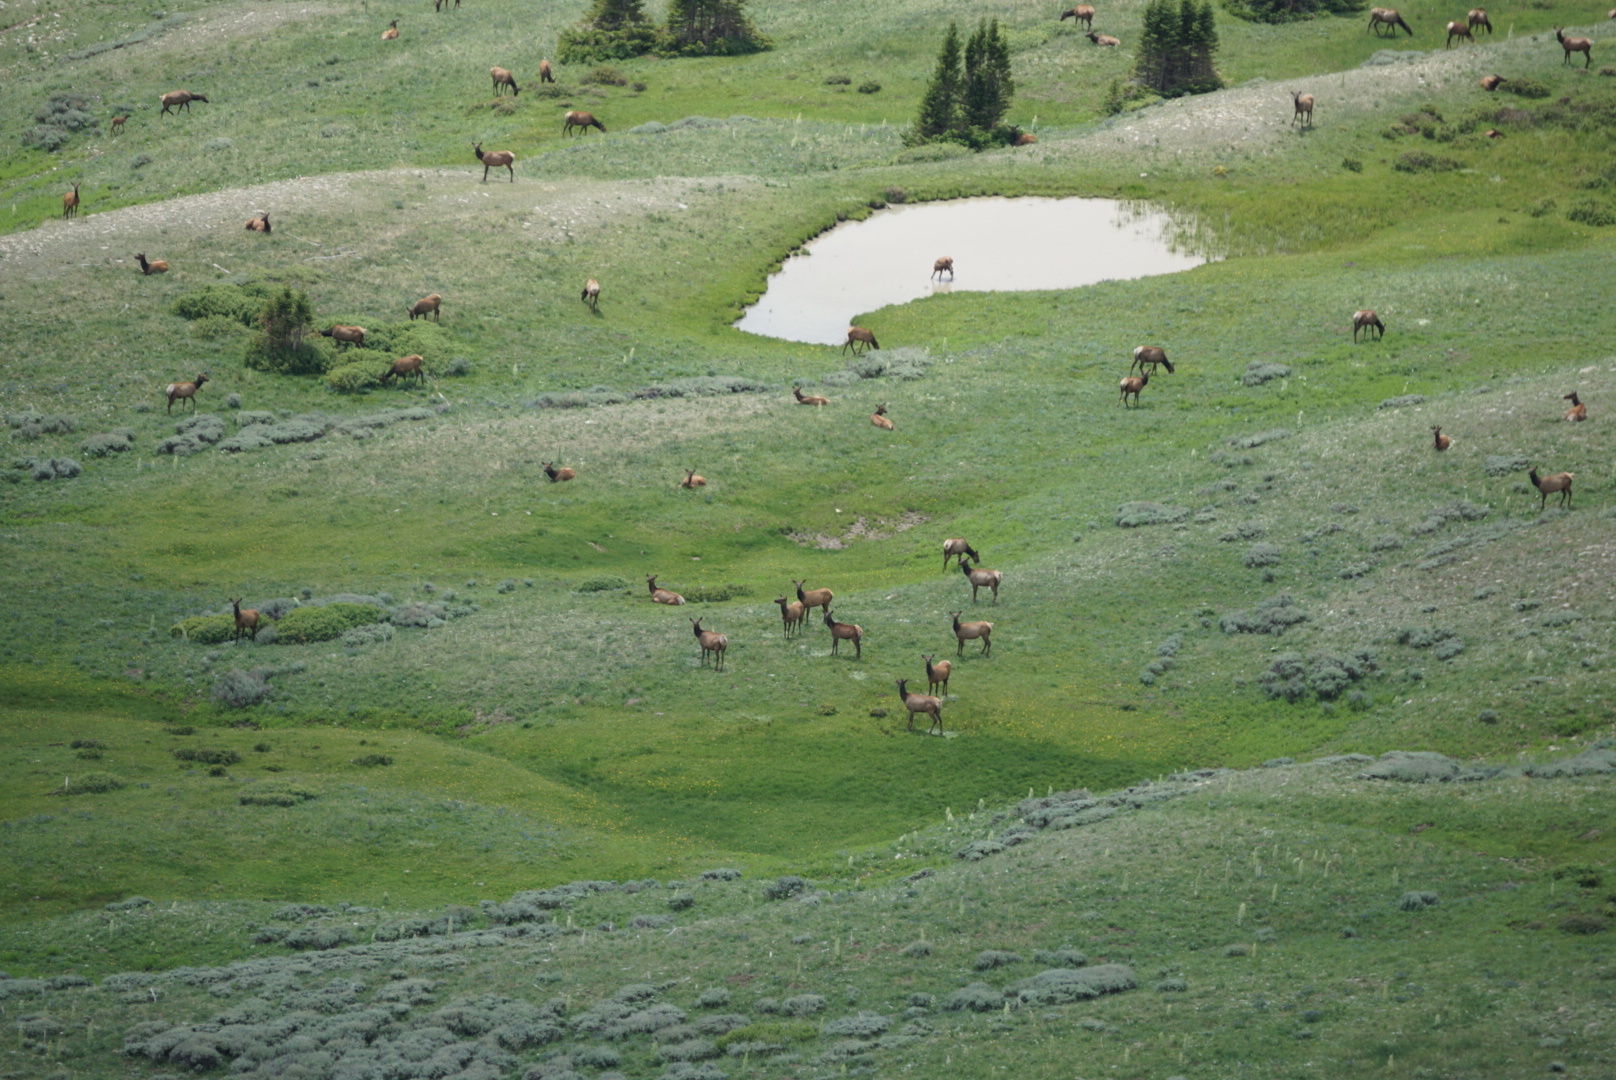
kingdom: Animalia
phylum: Chordata
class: Mammalia
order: Artiodactyla
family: Cervidae
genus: Cervus
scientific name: Cervus elaphus
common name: Red deer
